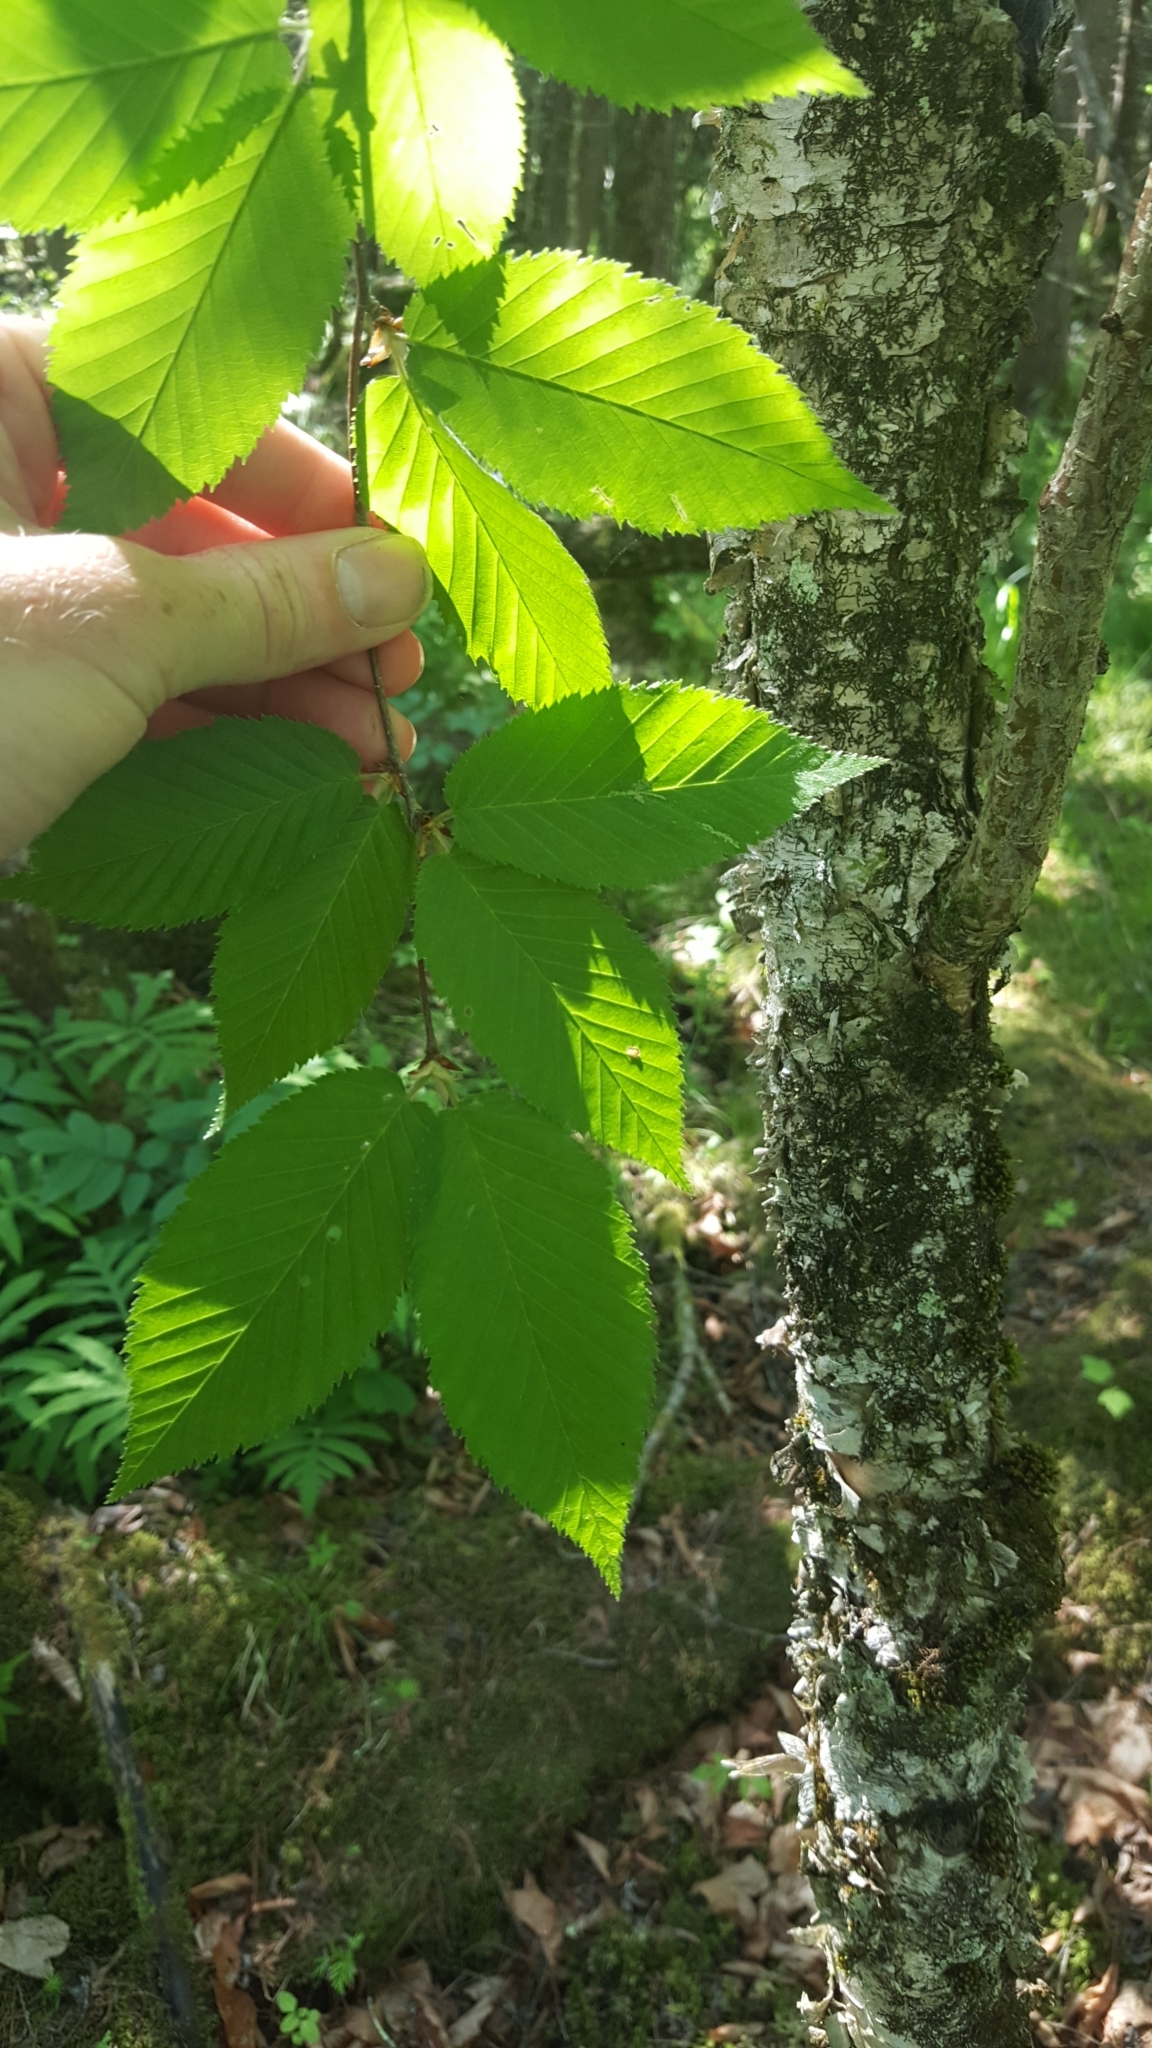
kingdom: Plantae
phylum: Tracheophyta
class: Magnoliopsida
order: Fagales
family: Betulaceae
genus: Betula
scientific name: Betula alleghaniensis
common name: Yellow birch
